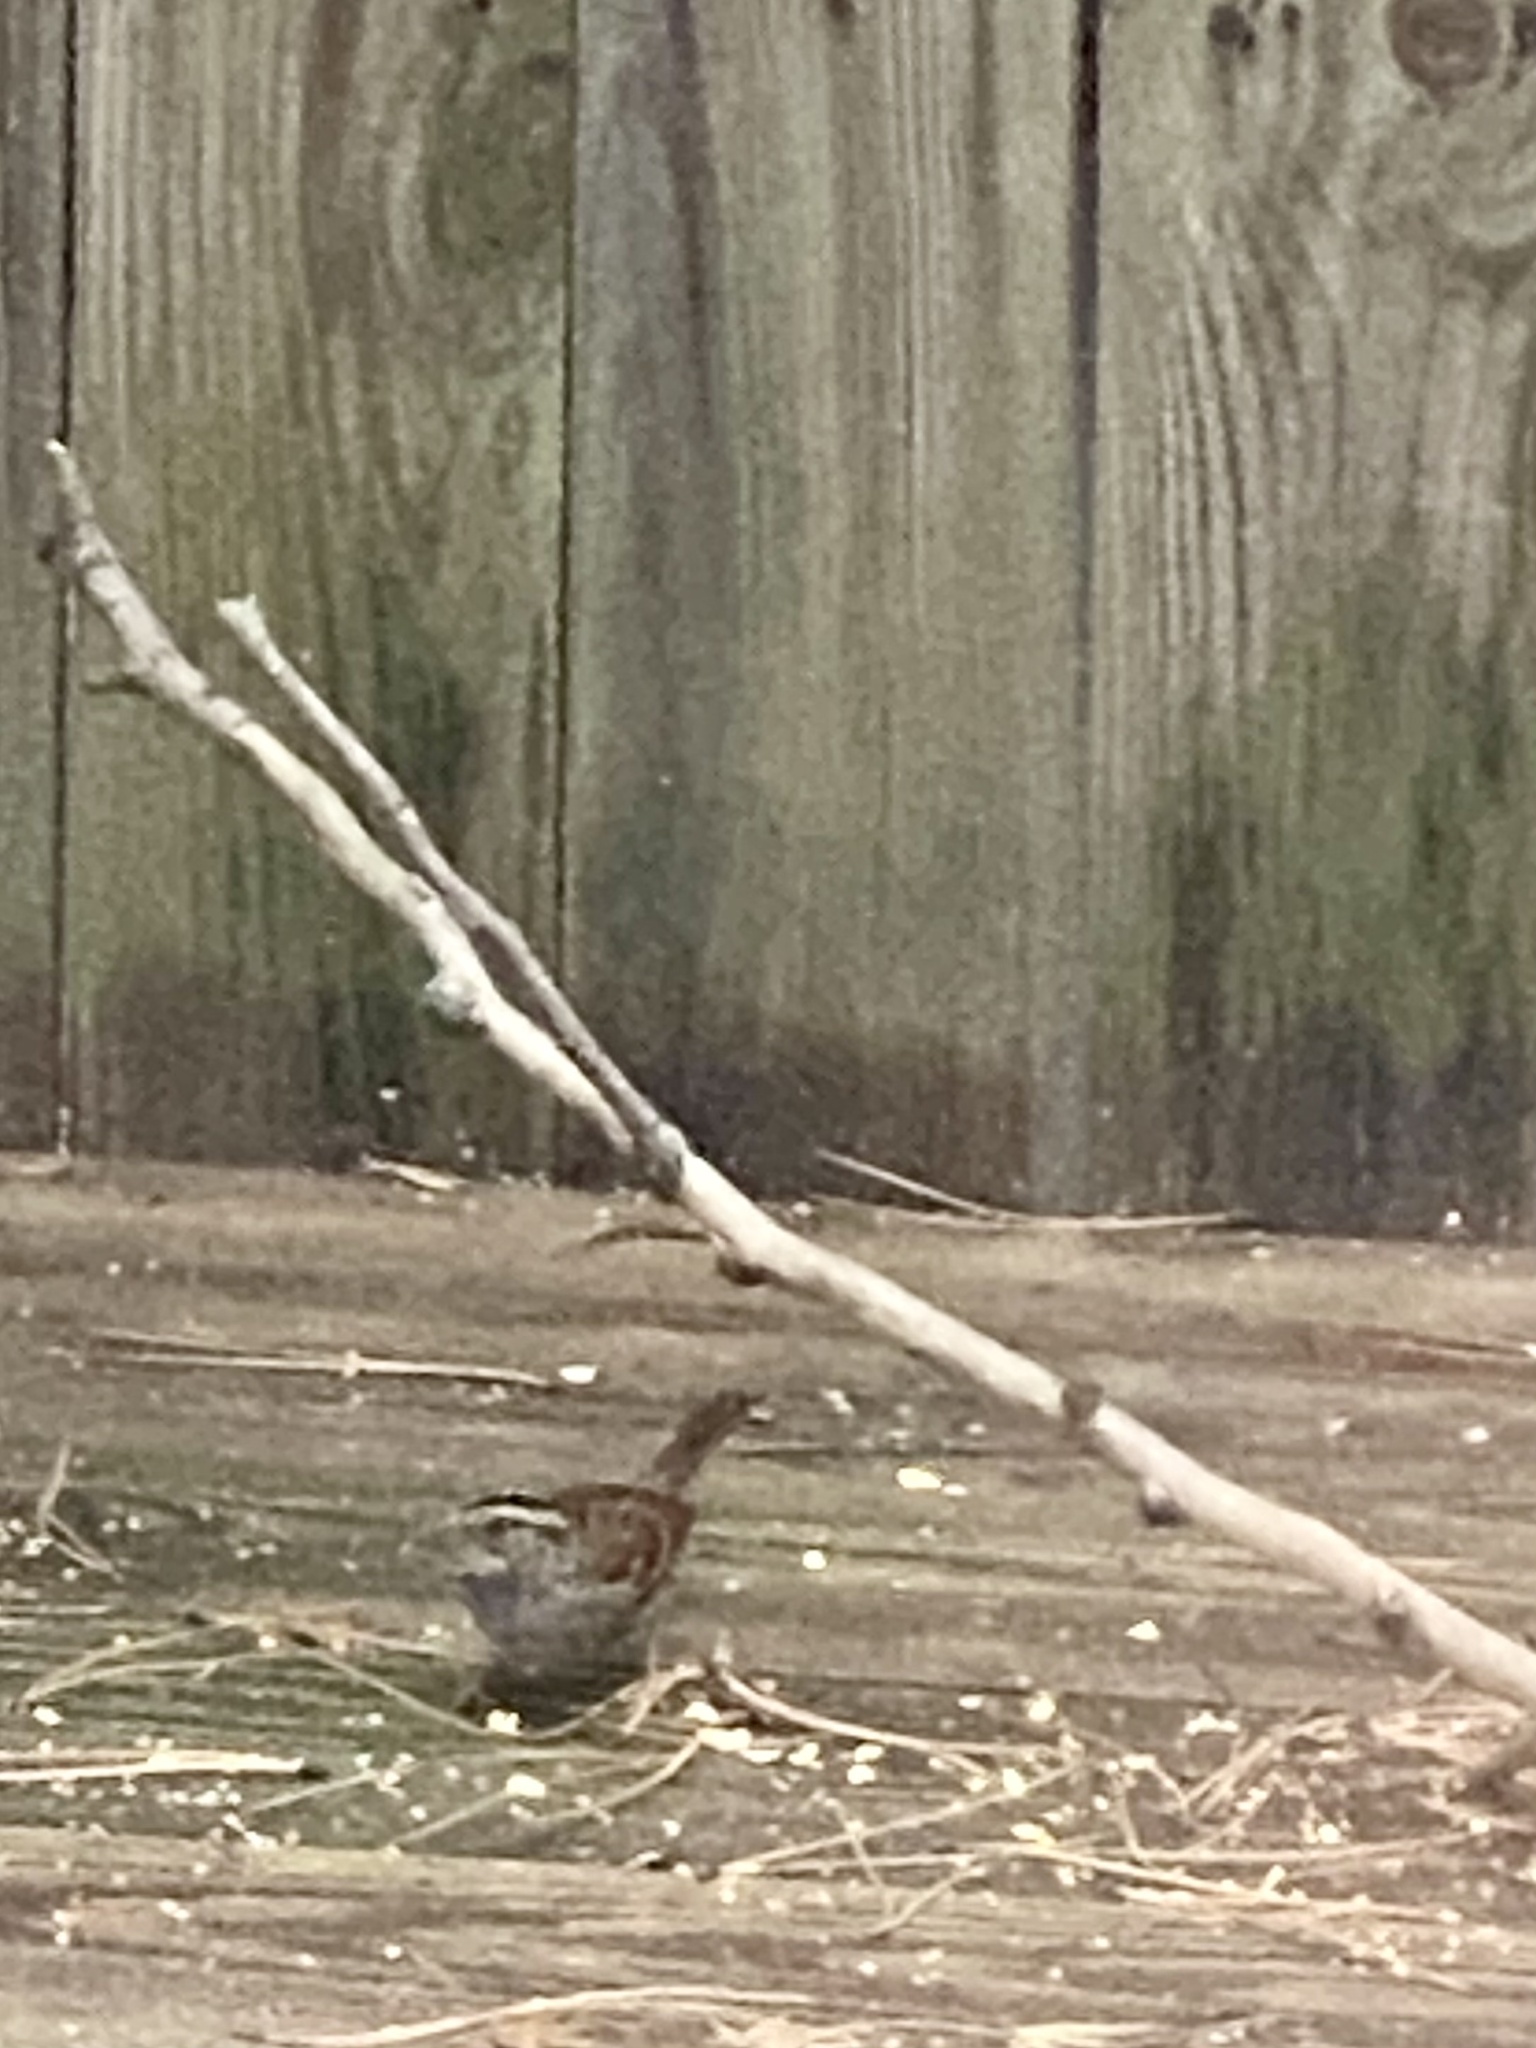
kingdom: Animalia
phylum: Chordata
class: Aves
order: Passeriformes
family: Passerellidae
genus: Zonotrichia
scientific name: Zonotrichia albicollis
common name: White-throated sparrow
